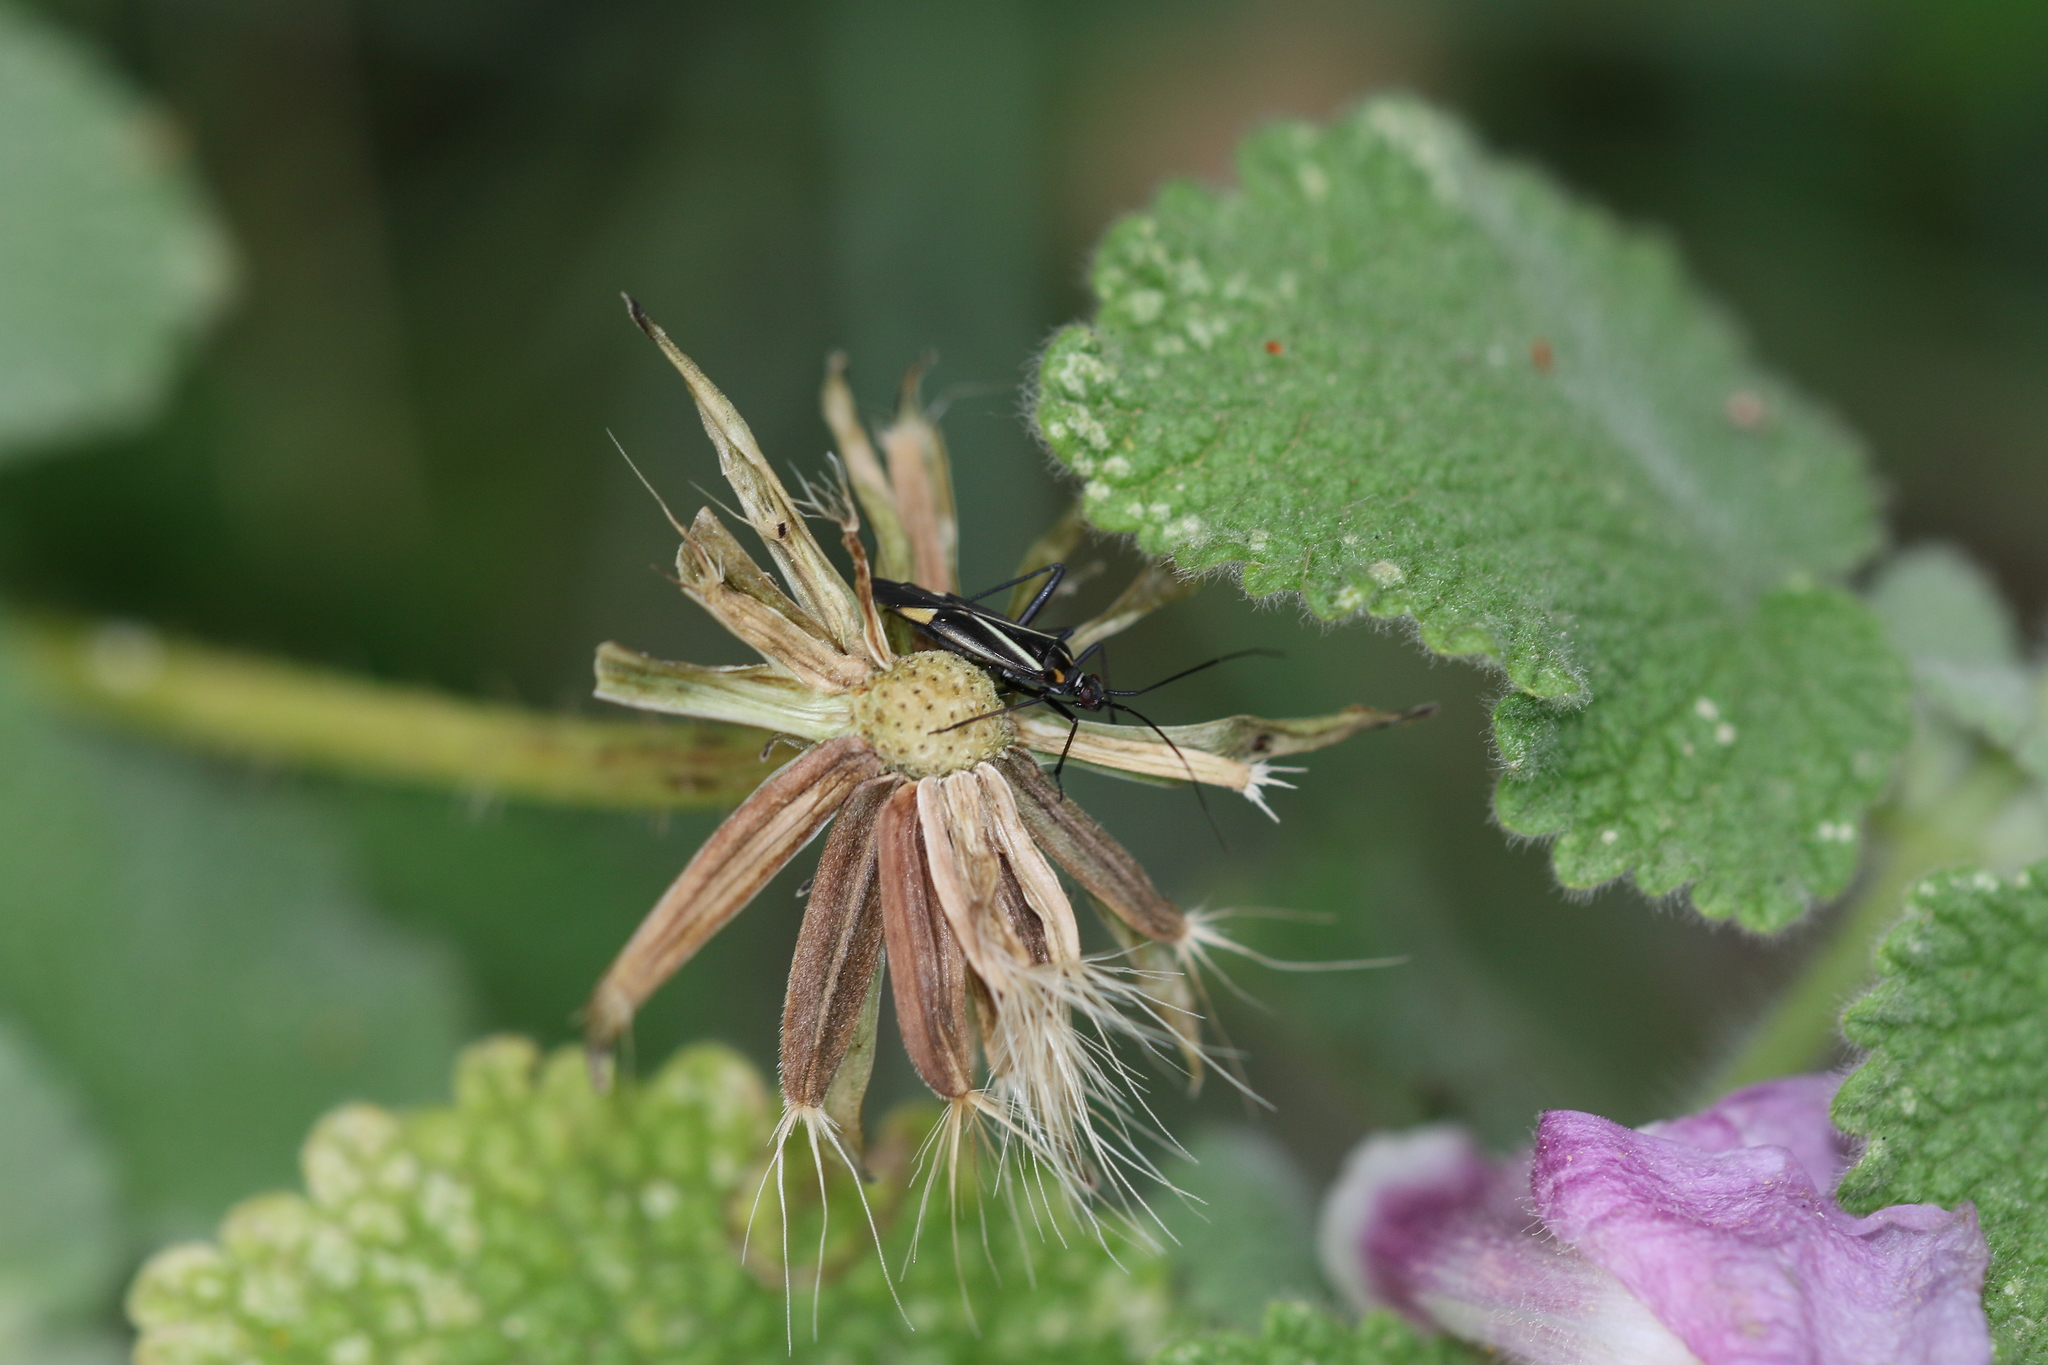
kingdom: Animalia
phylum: Arthropoda
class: Insecta
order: Hemiptera
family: Miridae
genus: Hadrodemus
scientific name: Hadrodemus m-flavum
